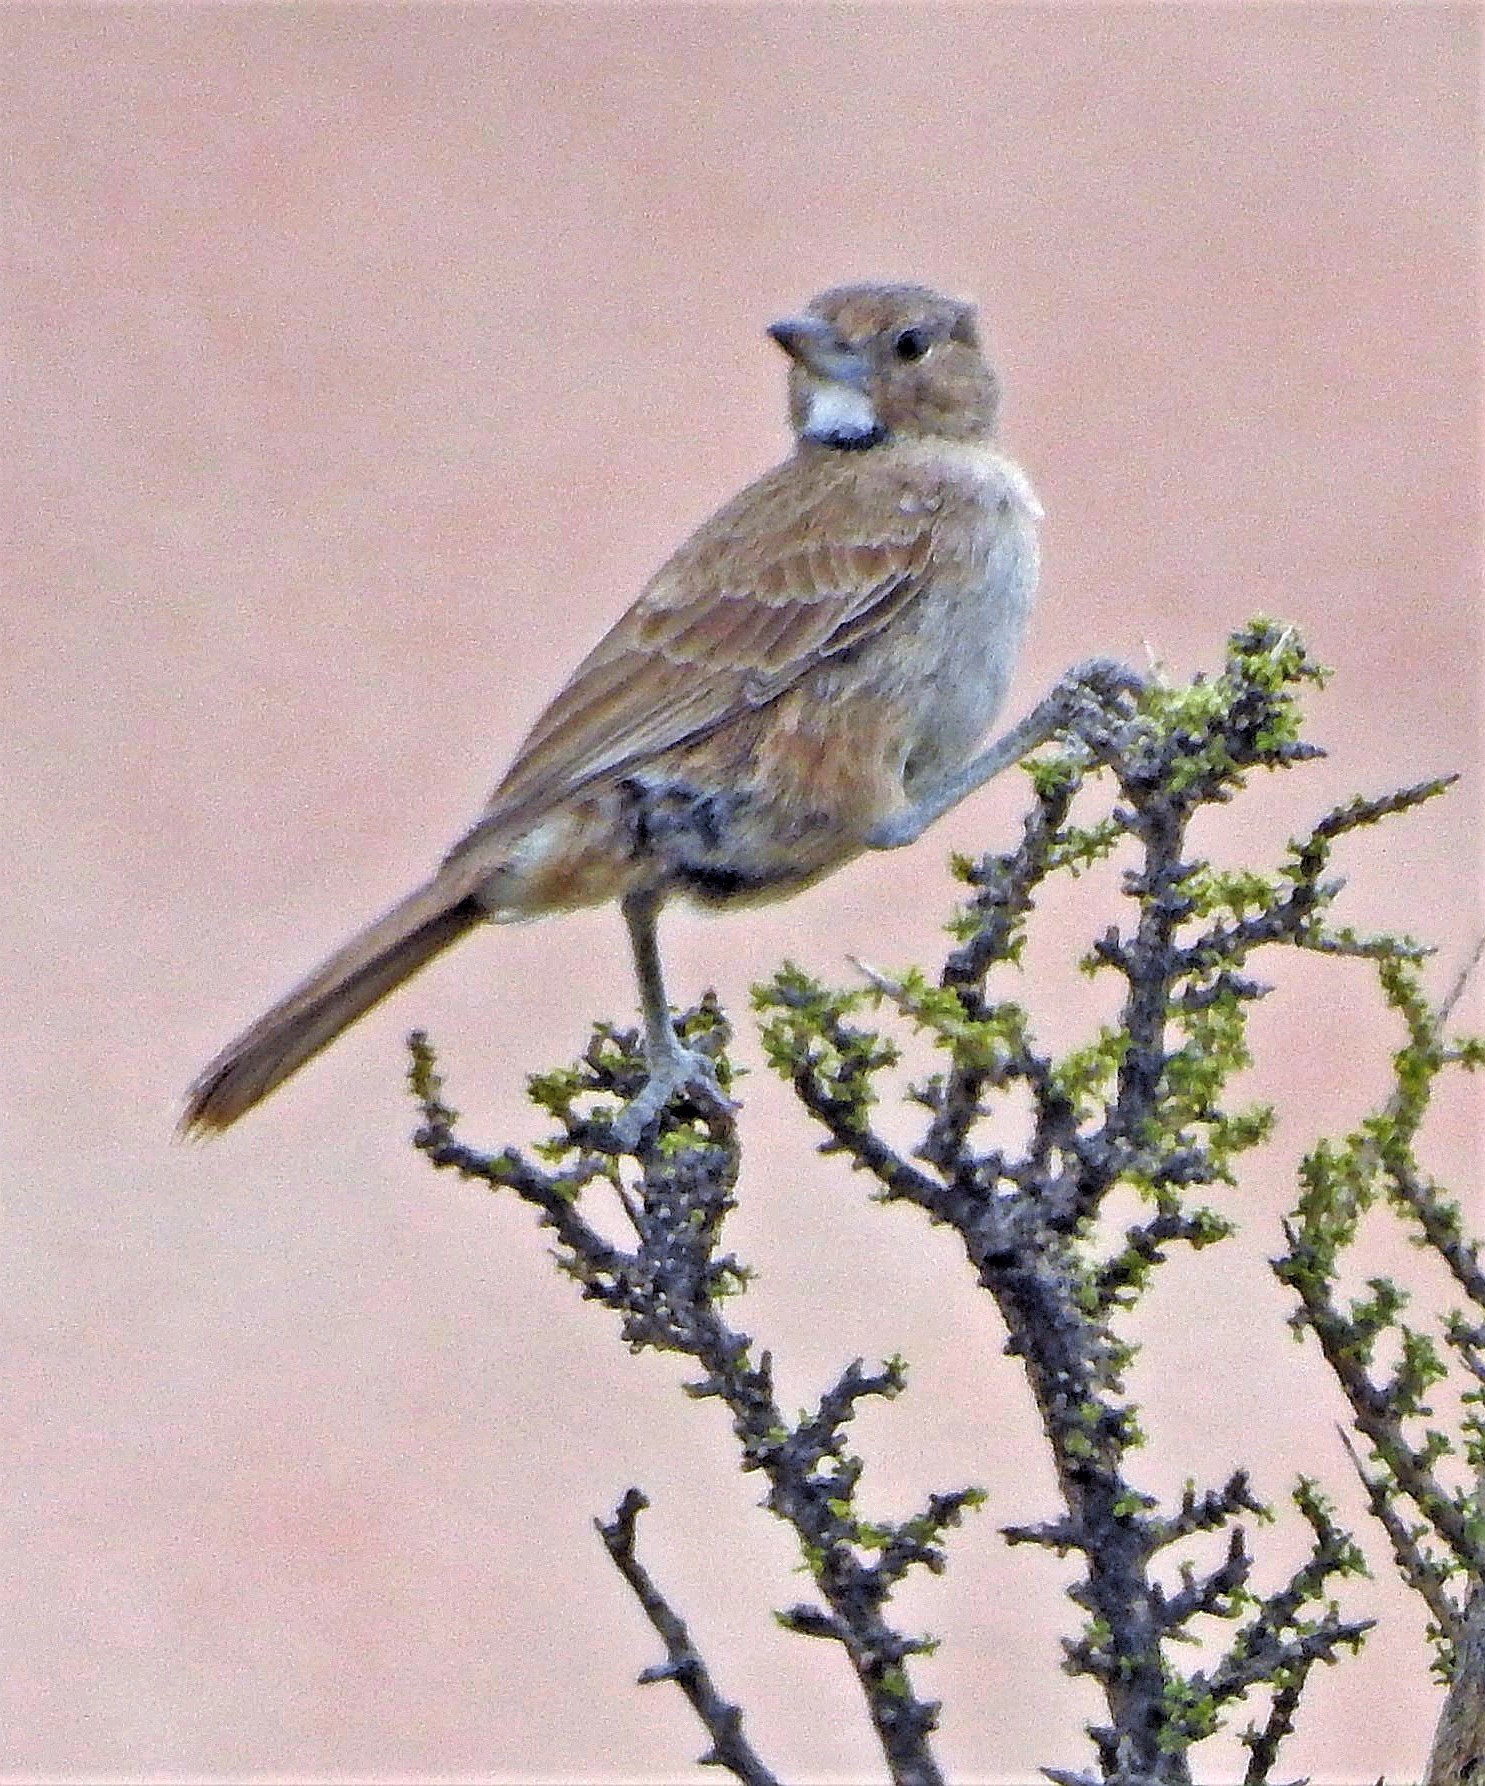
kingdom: Animalia
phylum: Chordata
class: Aves
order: Passeriformes
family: Furnariidae
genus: Pseudoseisura
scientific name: Pseudoseisura gutturalis
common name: White-throated cacholote
